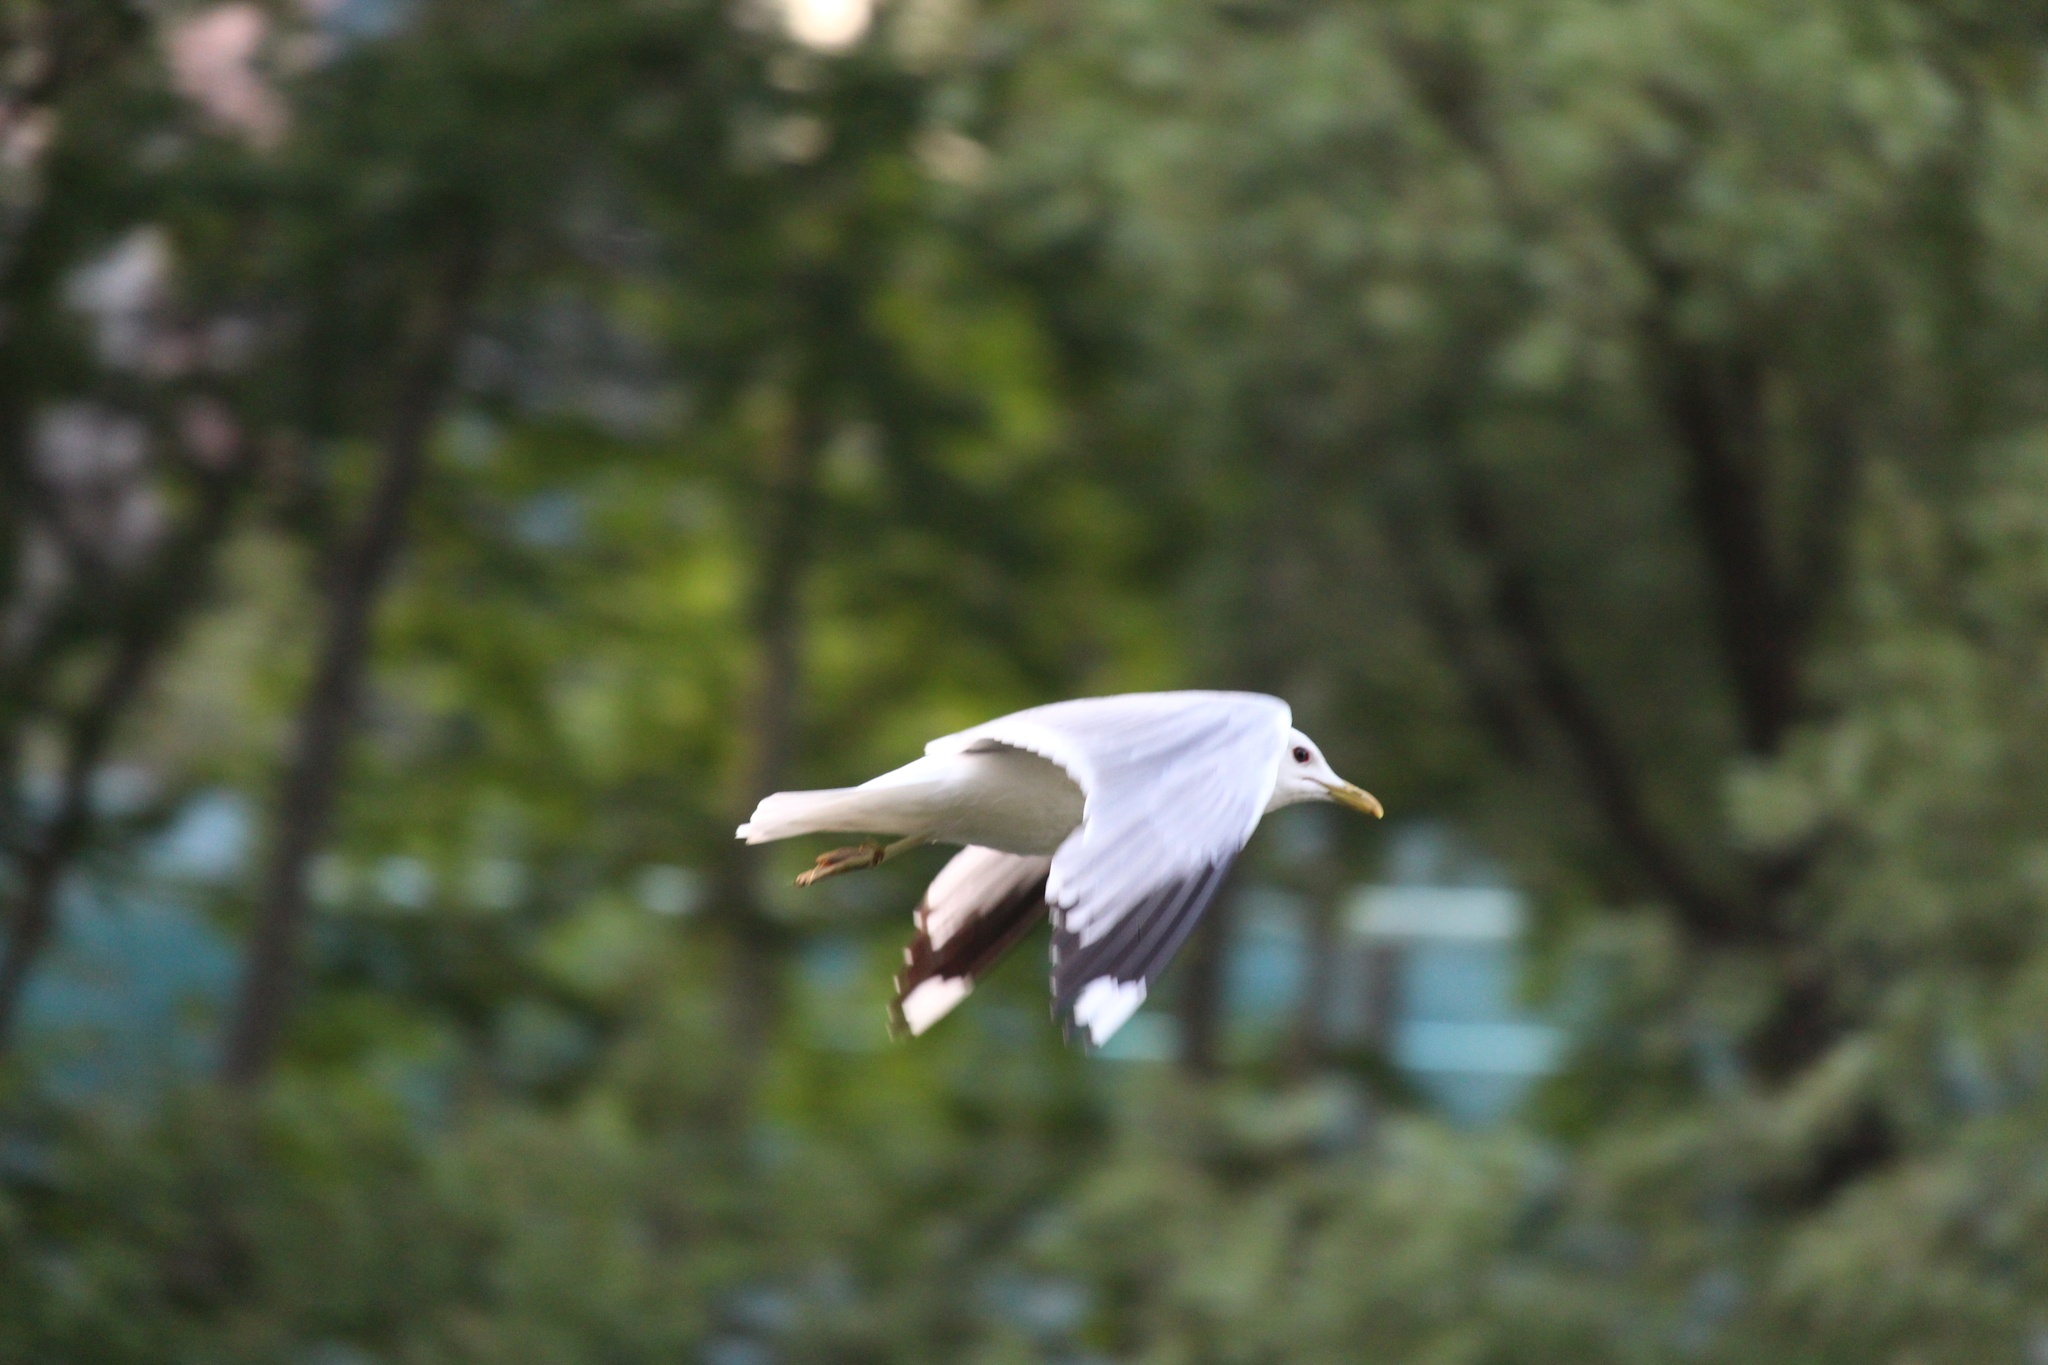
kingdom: Animalia
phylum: Chordata
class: Aves
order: Charadriiformes
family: Laridae
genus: Larus
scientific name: Larus canus
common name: Mew gull
